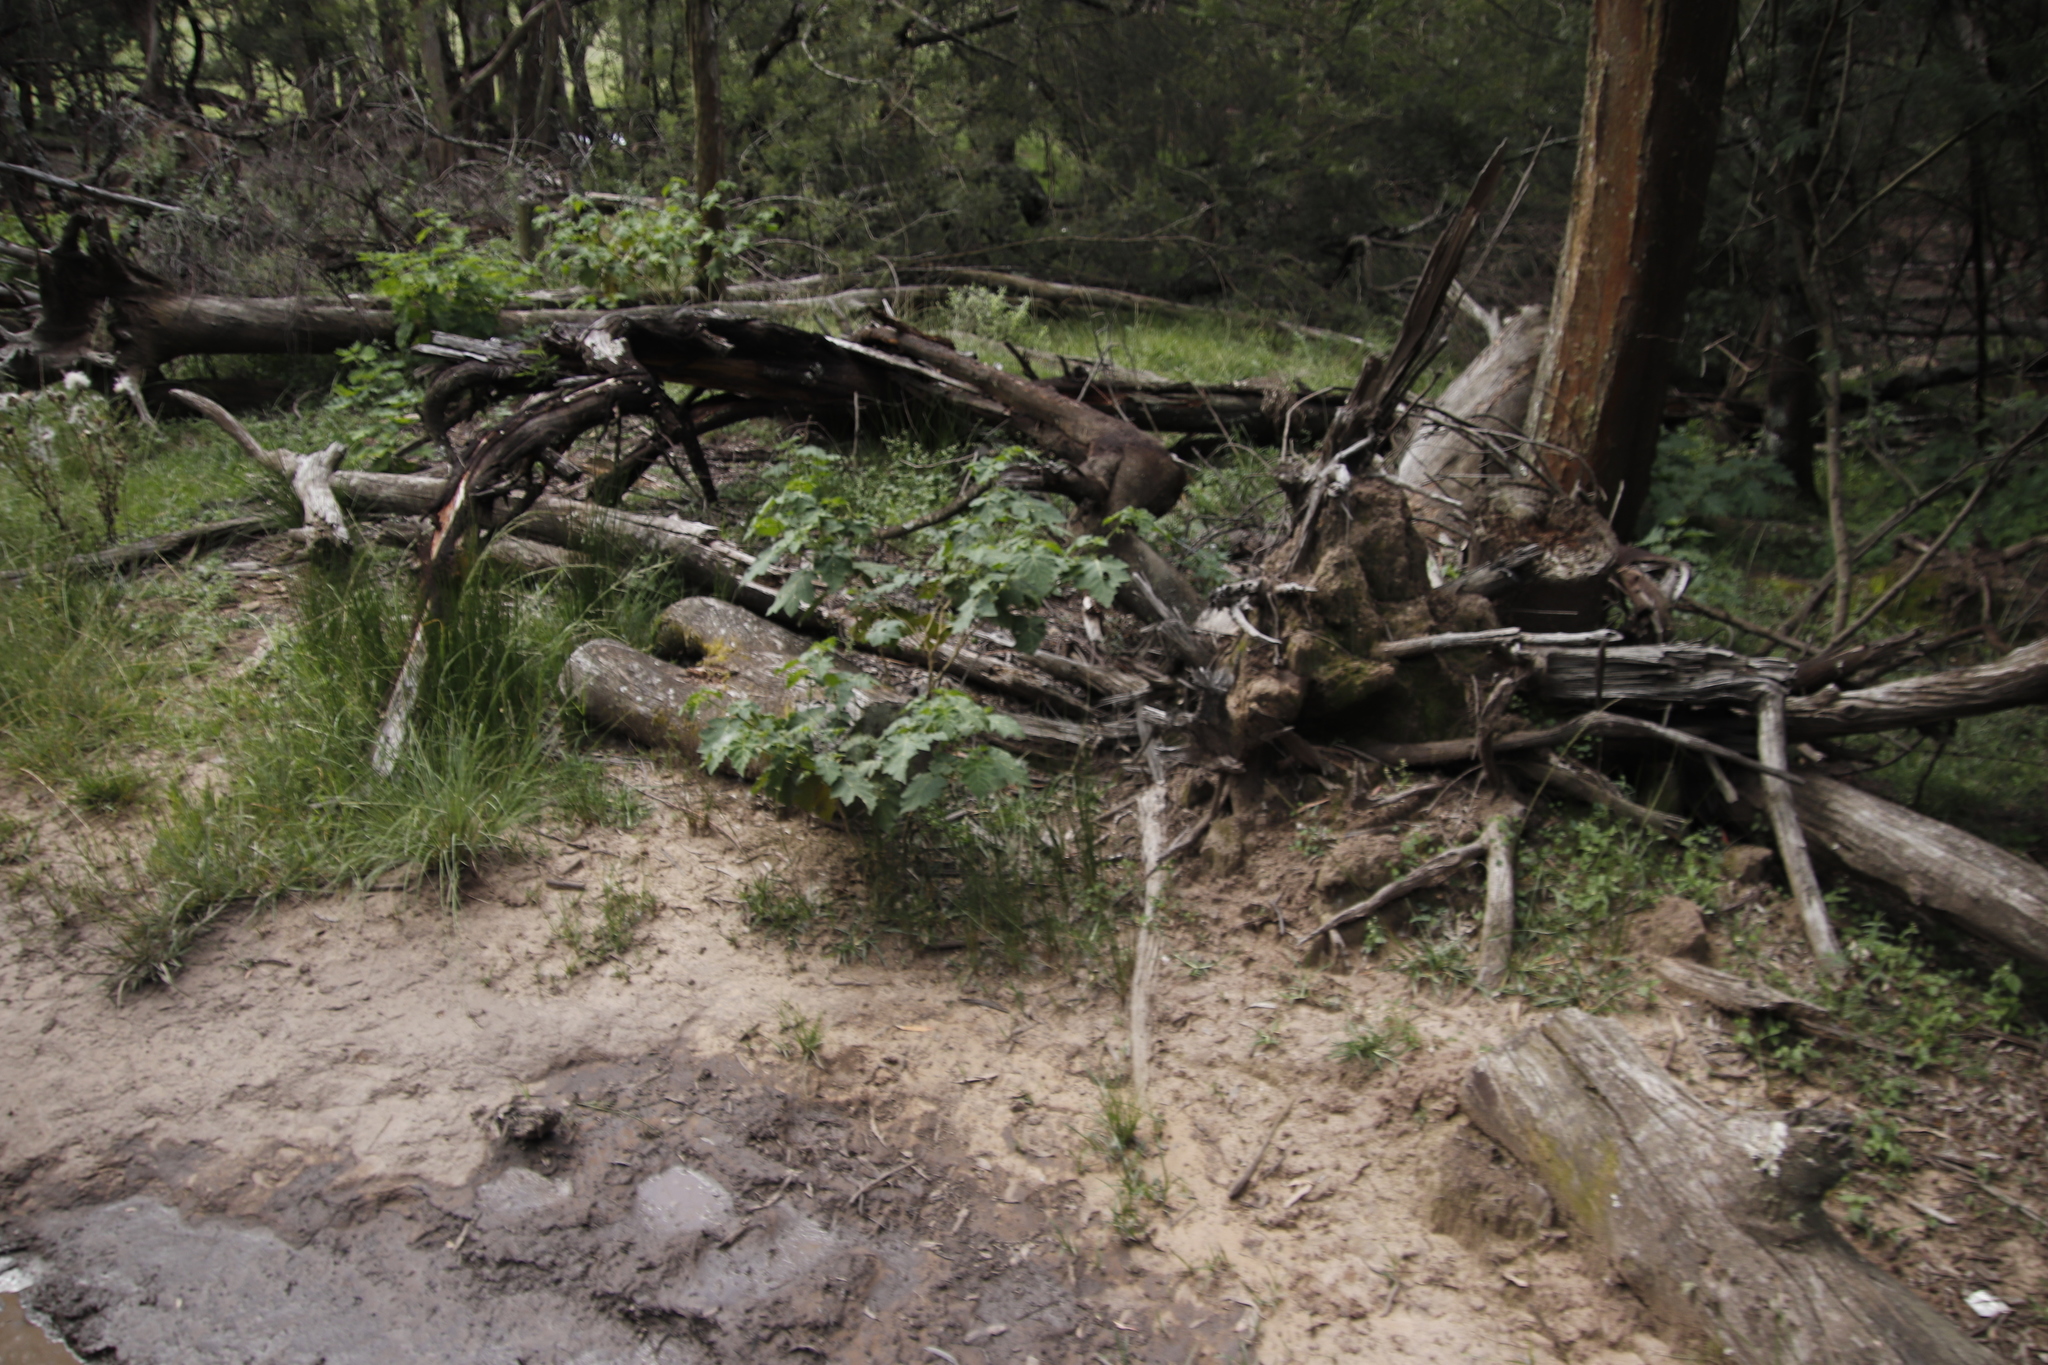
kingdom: Plantae
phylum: Tracheophyta
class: Magnoliopsida
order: Solanales
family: Solanaceae
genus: Solanum
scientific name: Solanum aculeatissimum
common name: Dutch eggplant
